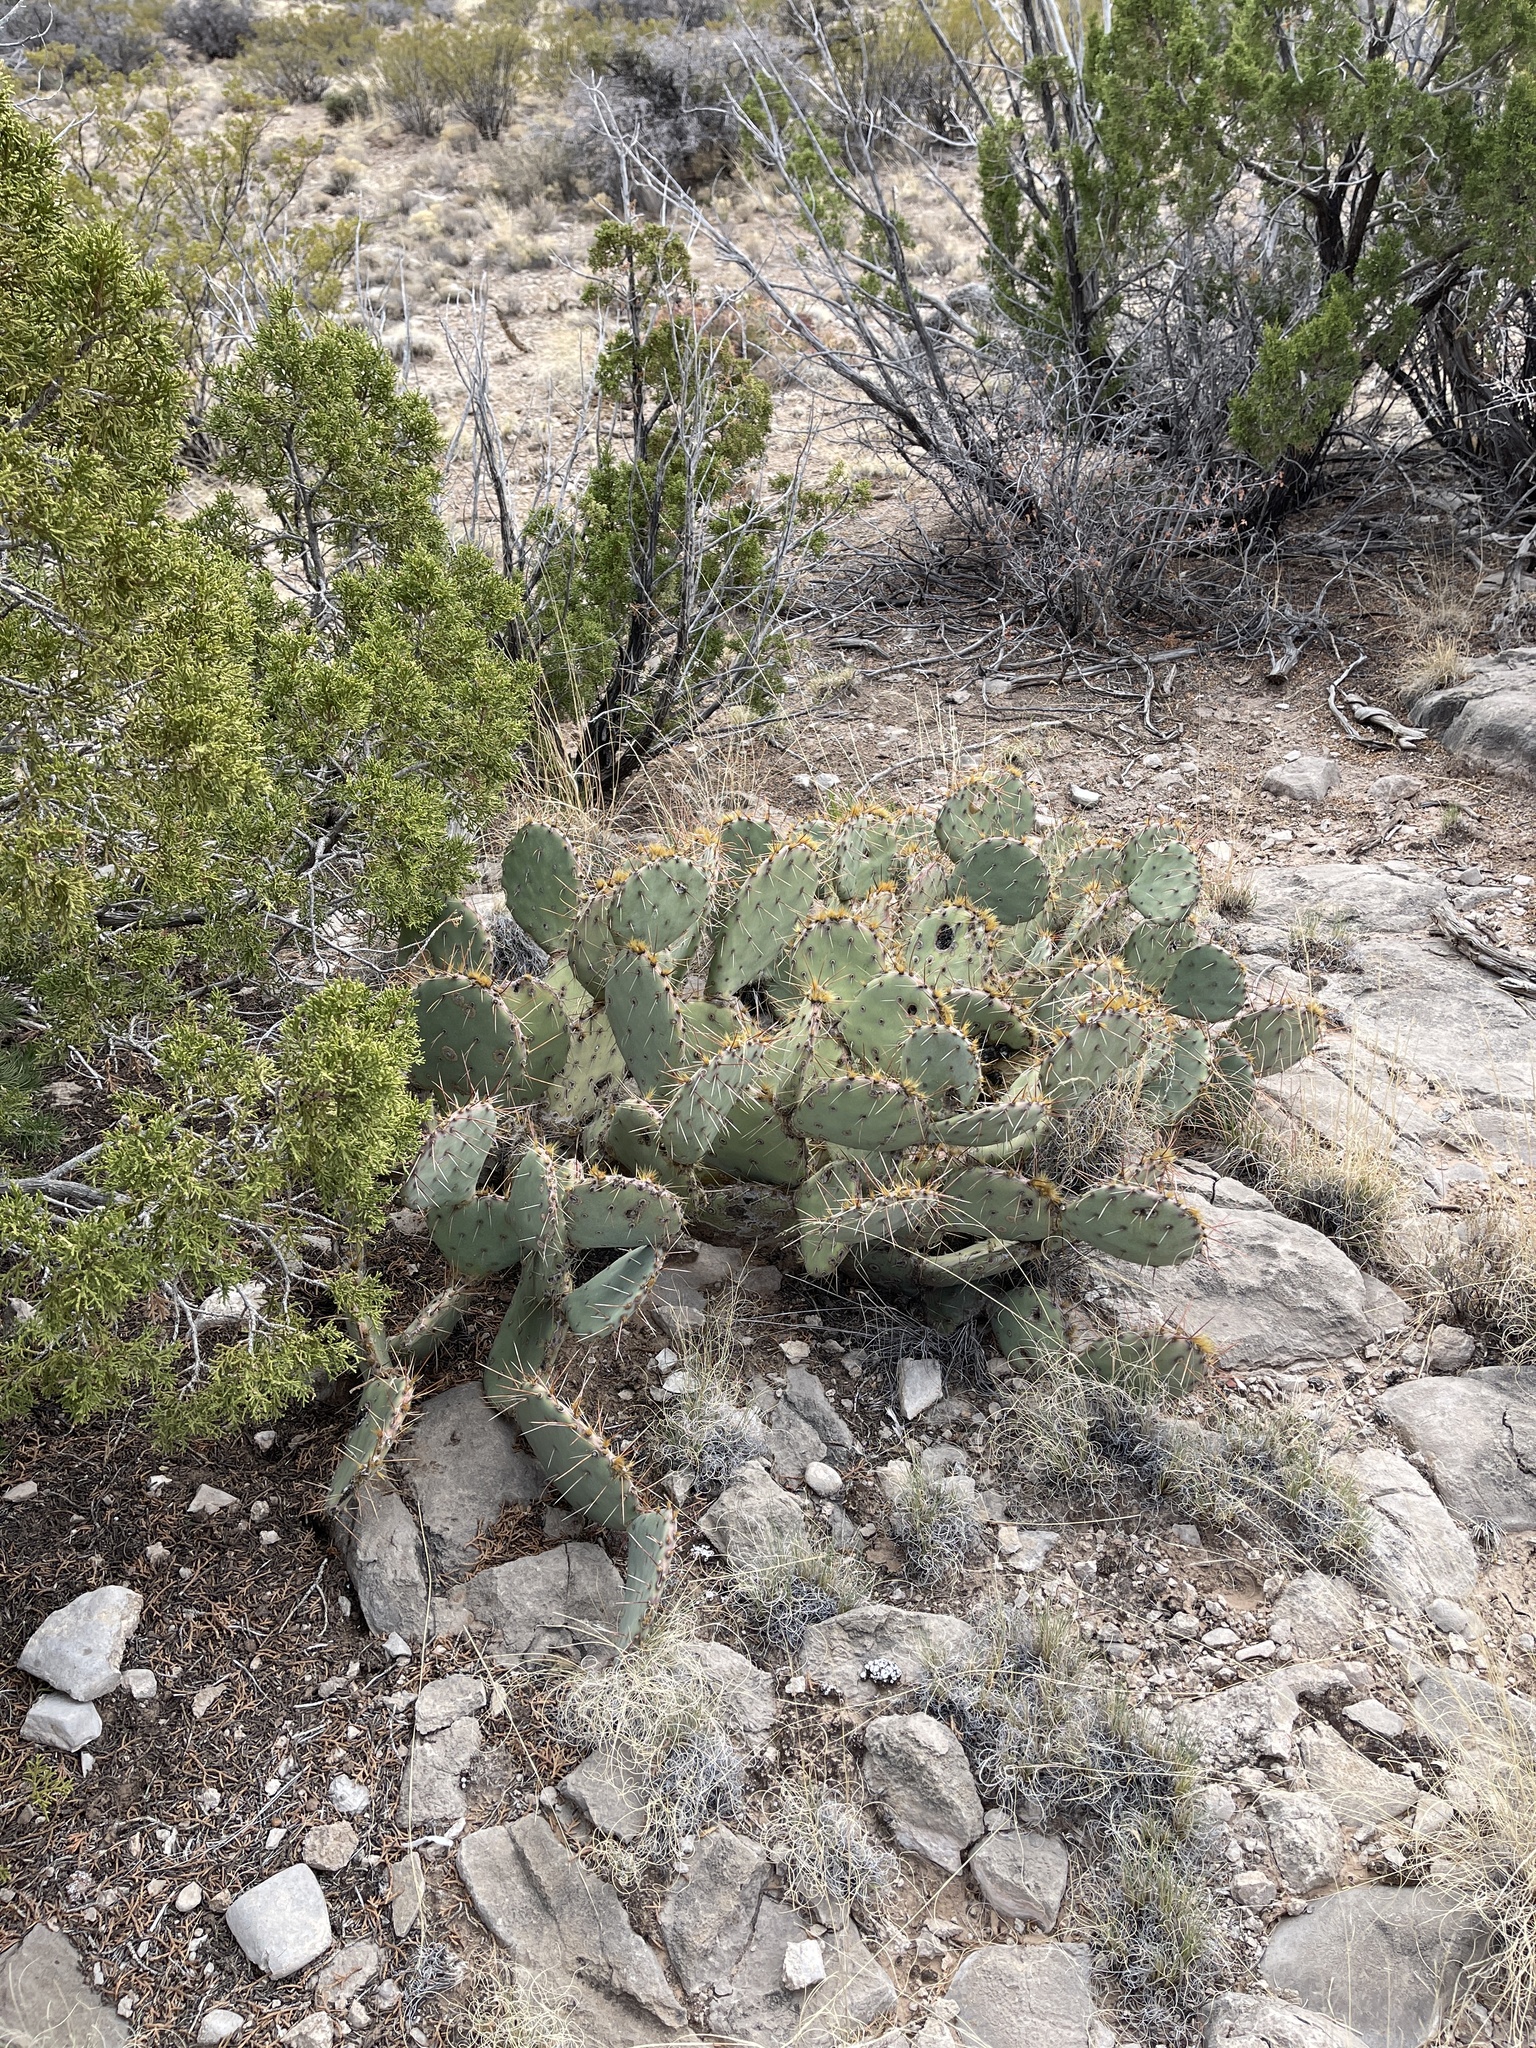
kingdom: Plantae
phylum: Tracheophyta
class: Magnoliopsida
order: Caryophyllales
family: Cactaceae
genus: Opuntia
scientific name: Opuntia macrorhiza
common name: Grassland pricklypear
